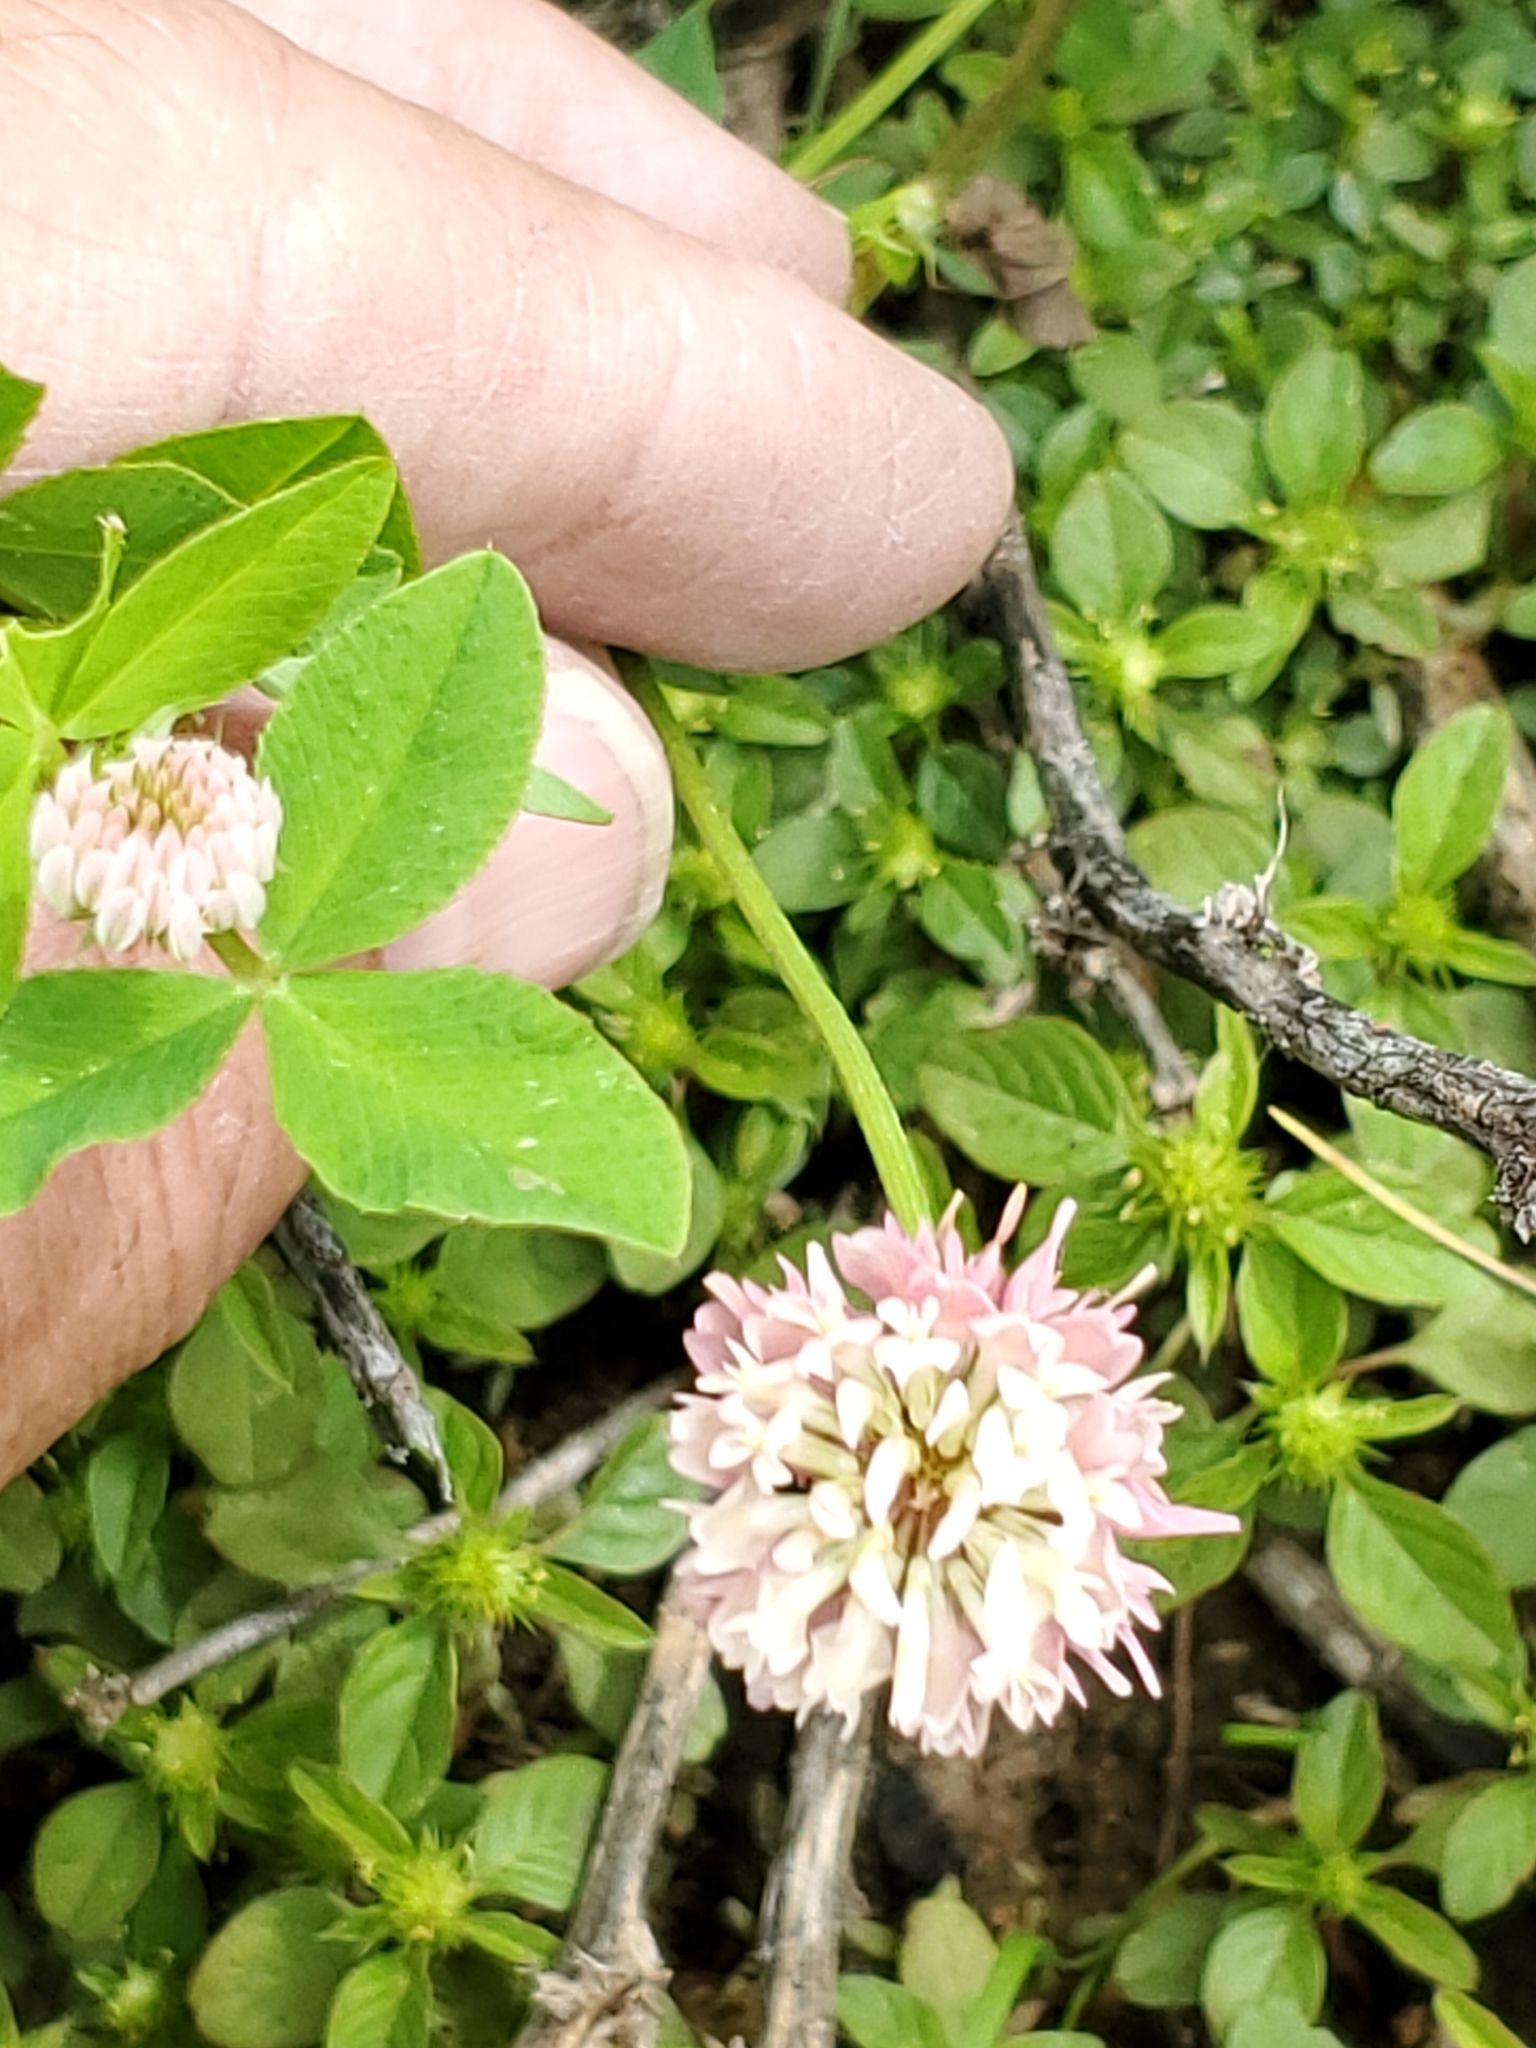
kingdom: Plantae
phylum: Tracheophyta
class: Magnoliopsida
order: Fabales
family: Fabaceae
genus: Trifolium
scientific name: Trifolium hybridum
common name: Alsike clover
